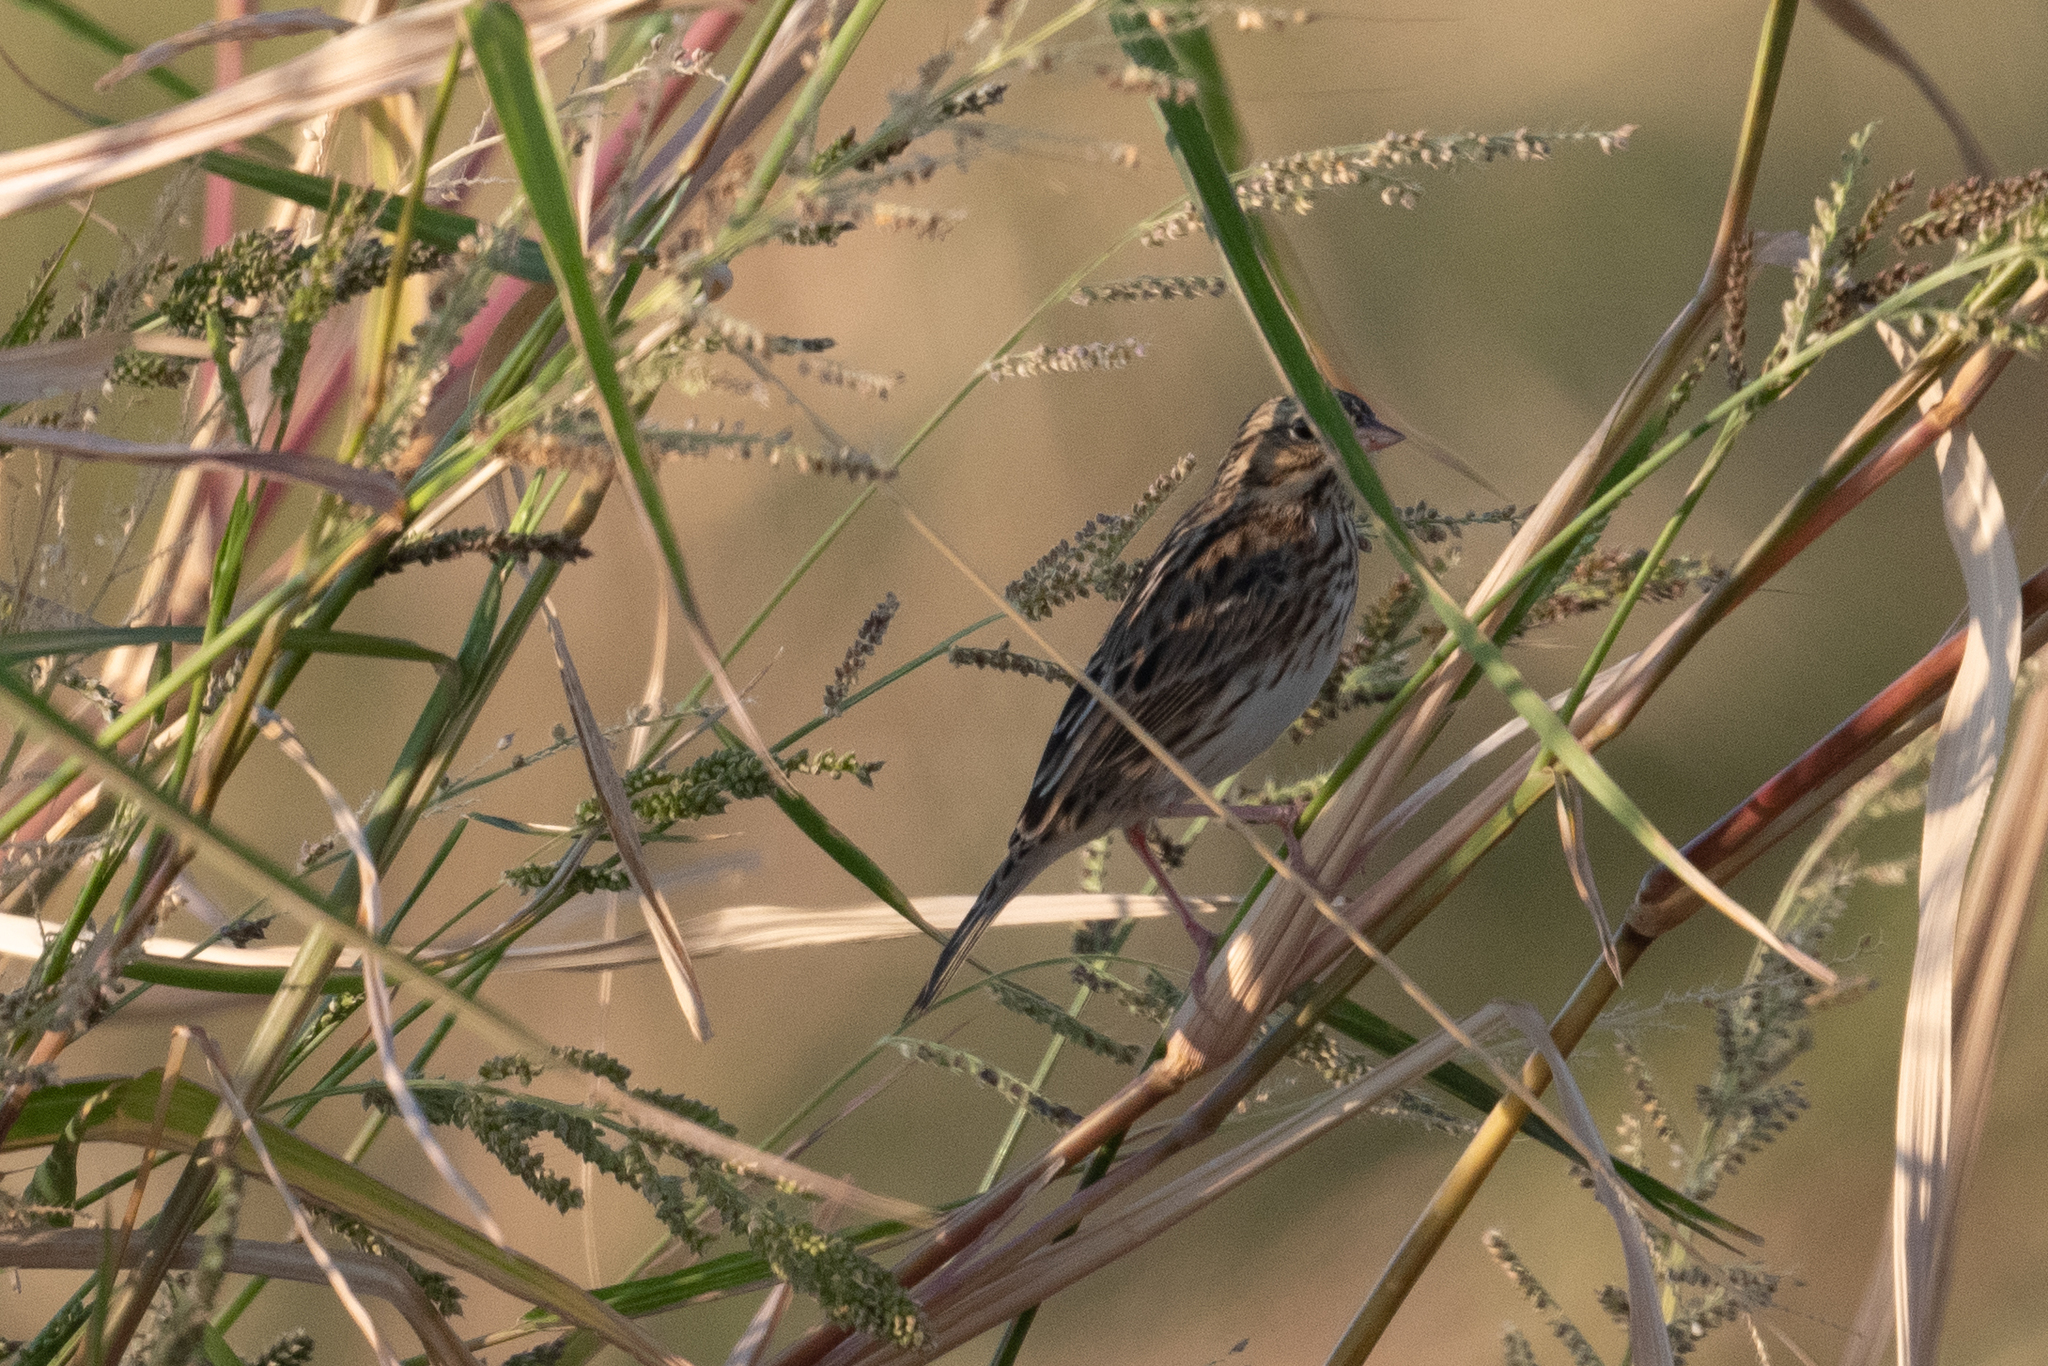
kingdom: Animalia
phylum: Chordata
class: Aves
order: Passeriformes
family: Passerellidae
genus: Passerculus
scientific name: Passerculus sandwichensis
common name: Savannah sparrow
